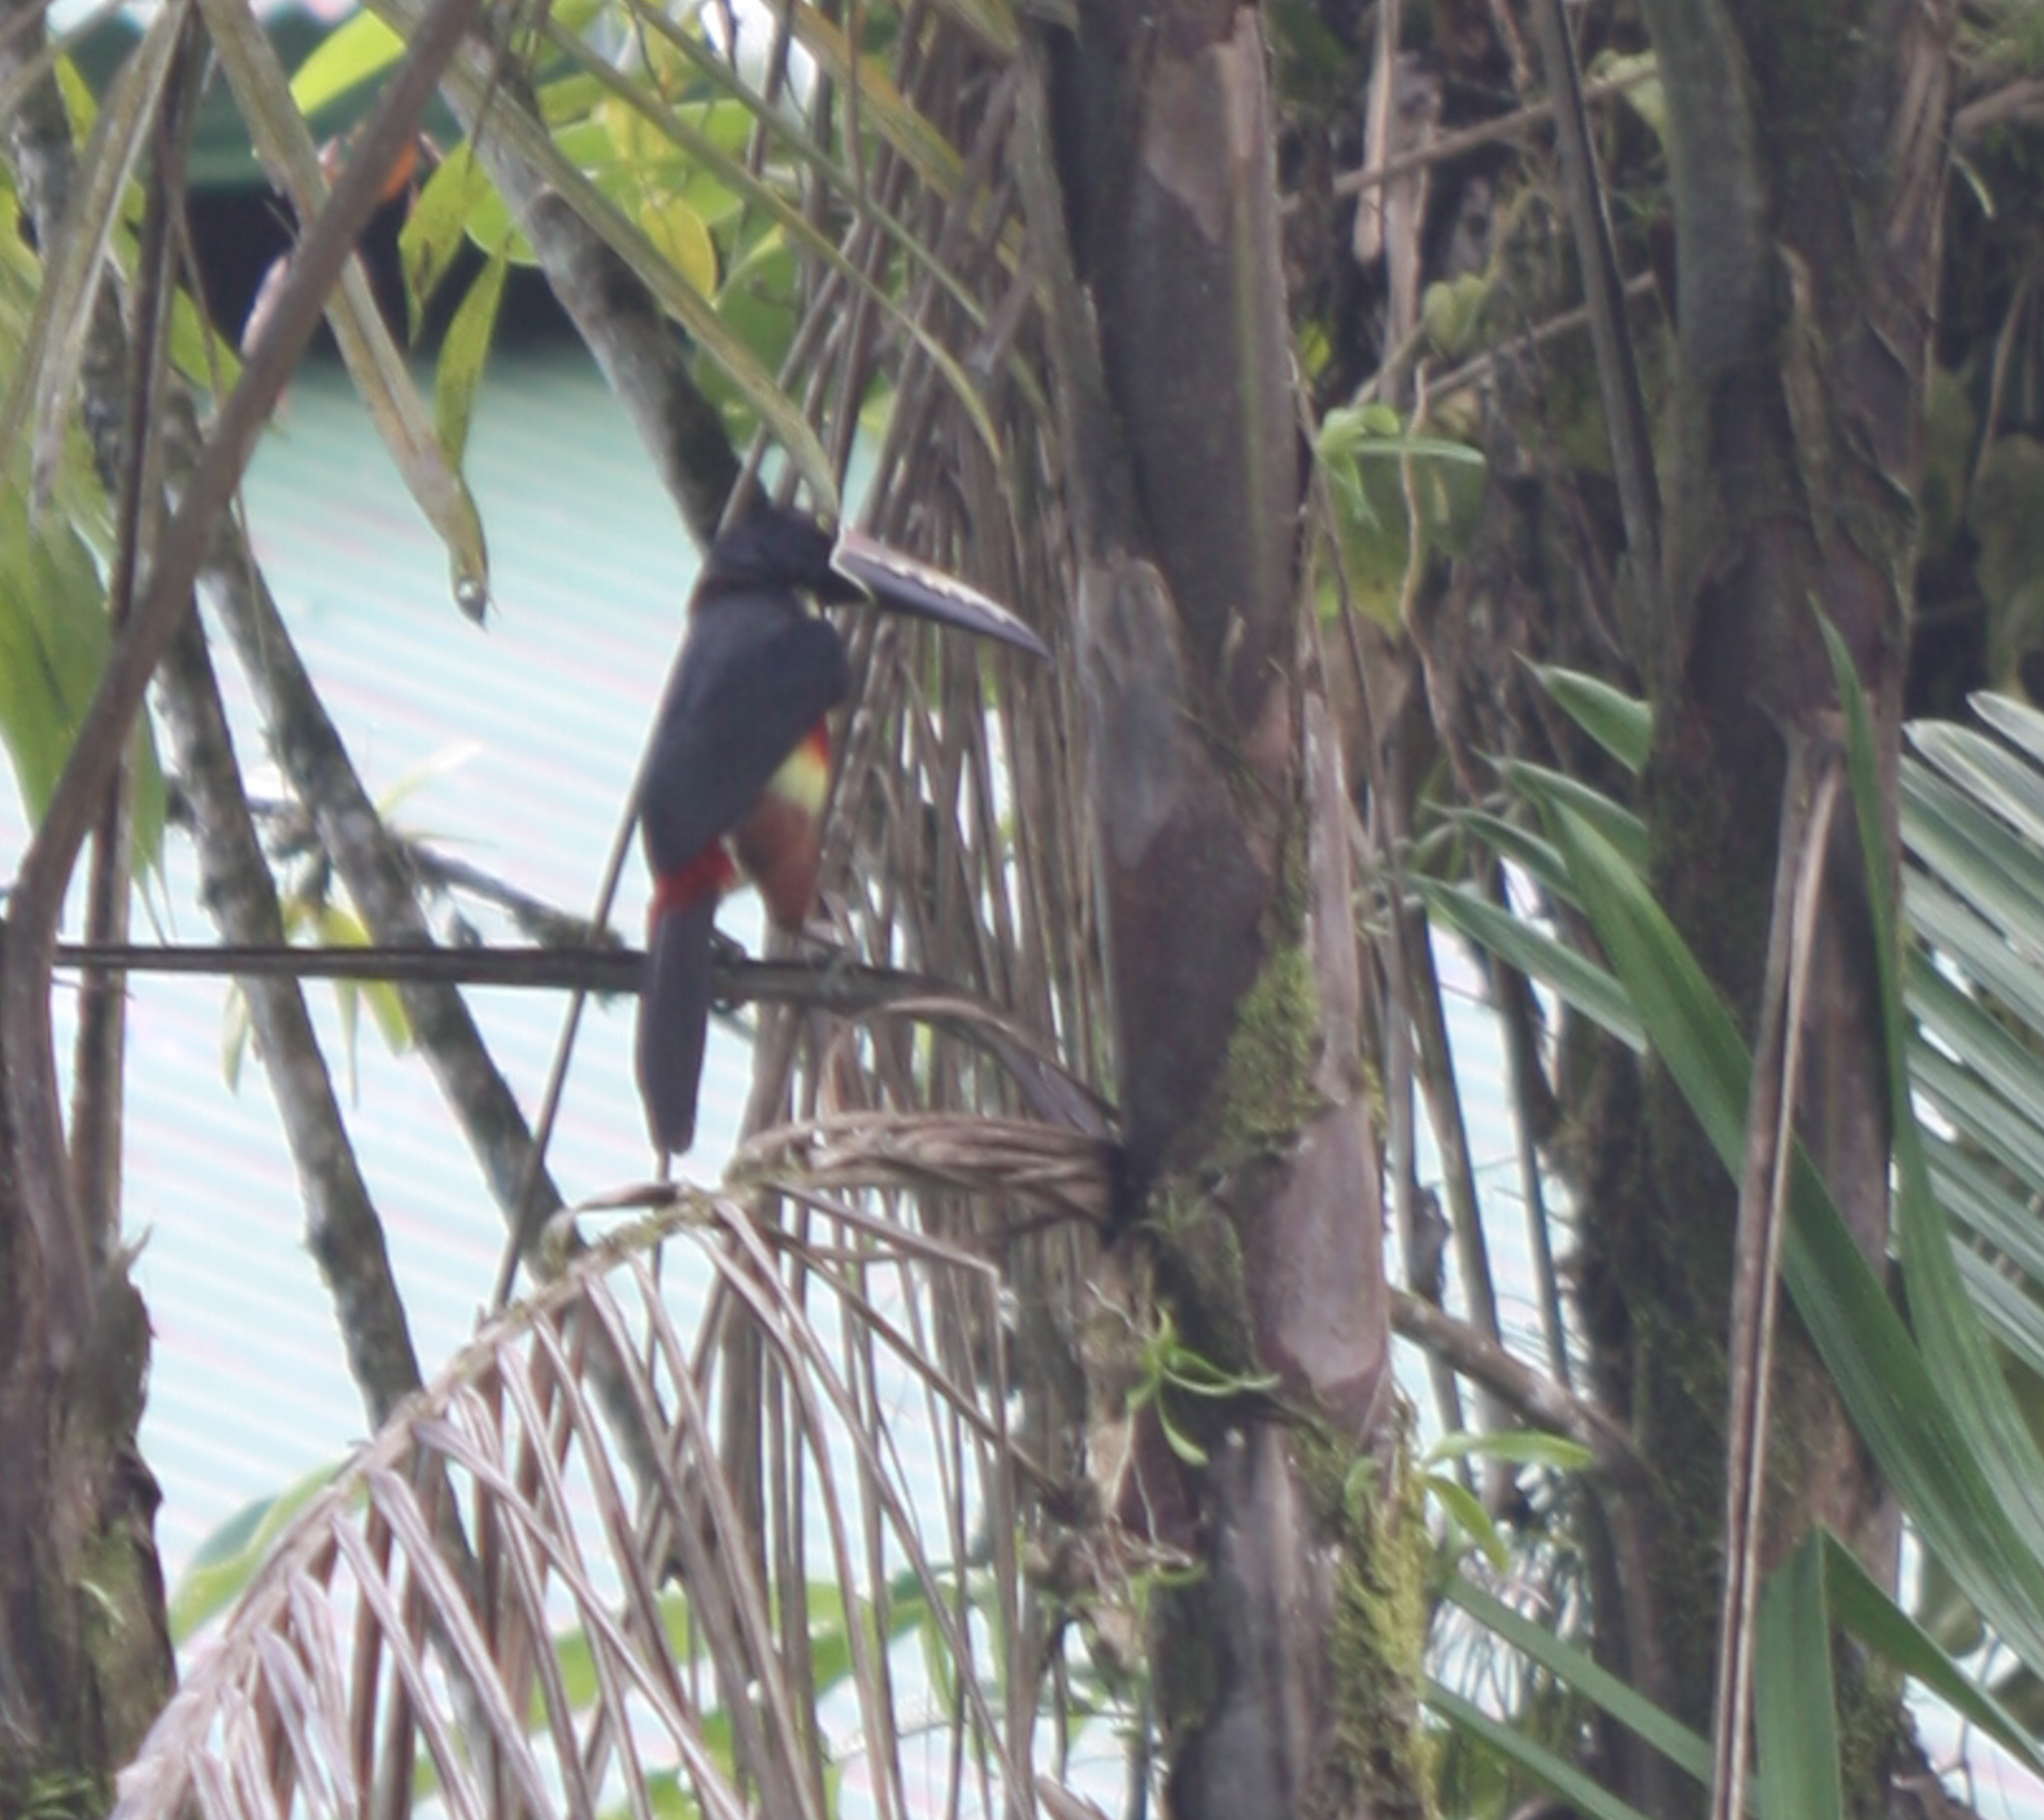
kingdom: Animalia
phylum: Chordata
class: Aves
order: Piciformes
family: Ramphastidae
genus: Pteroglossus
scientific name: Pteroglossus torquatus
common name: Collared aracari
